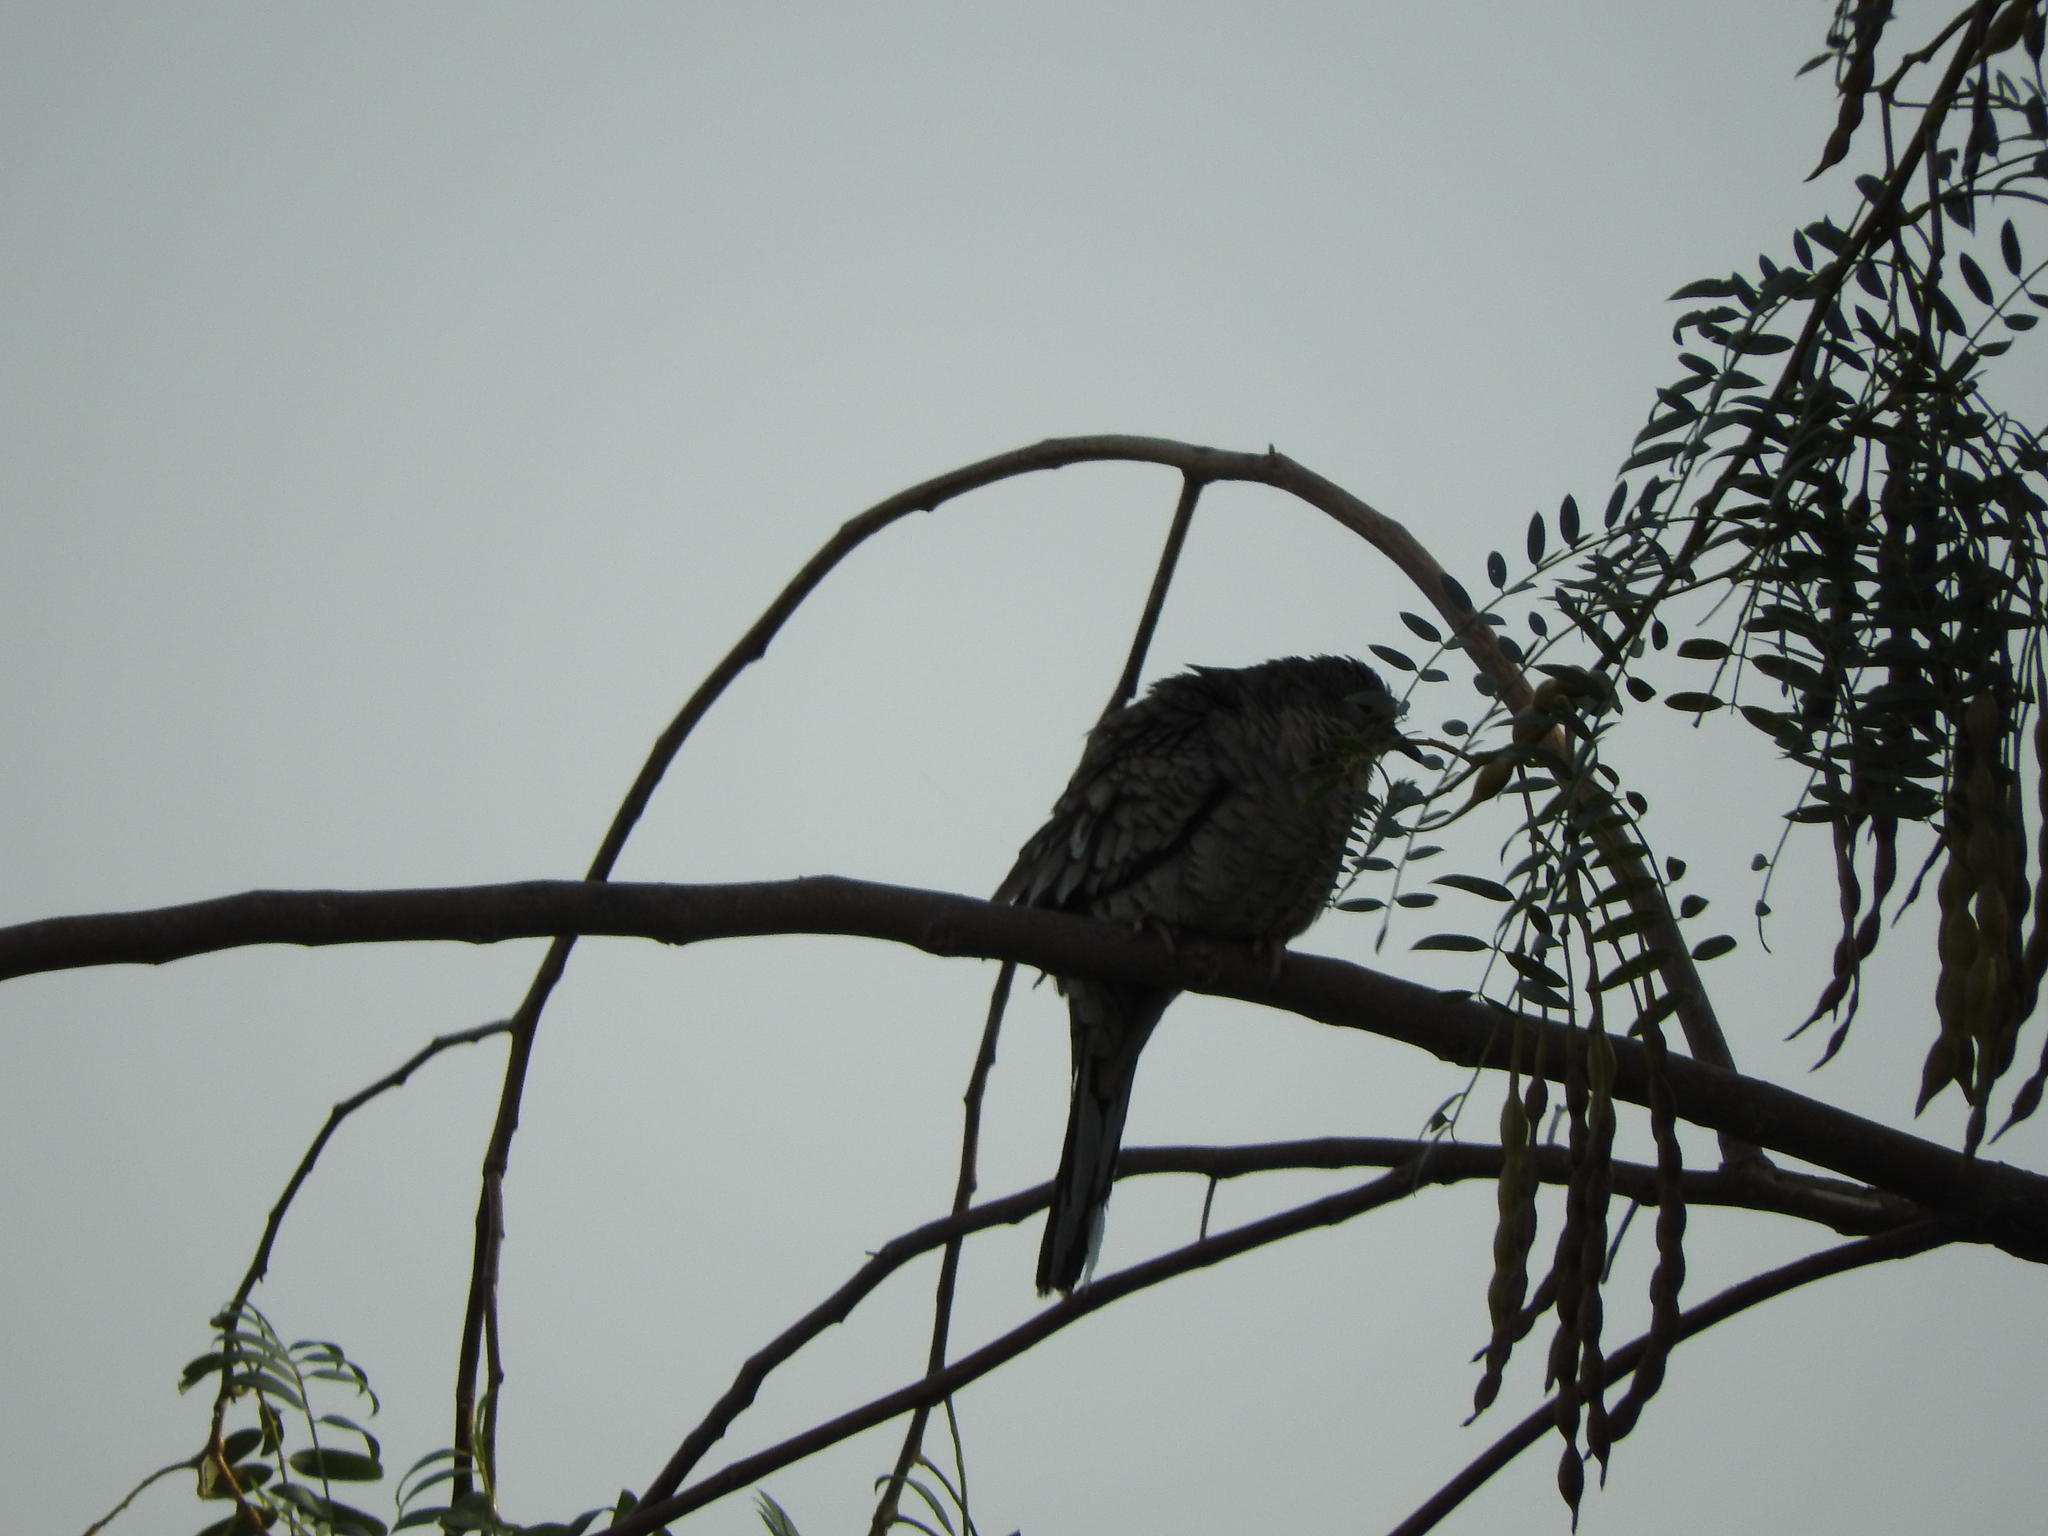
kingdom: Animalia
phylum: Chordata
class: Aves
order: Columbiformes
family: Columbidae
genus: Columbina
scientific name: Columbina inca
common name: Inca dove
